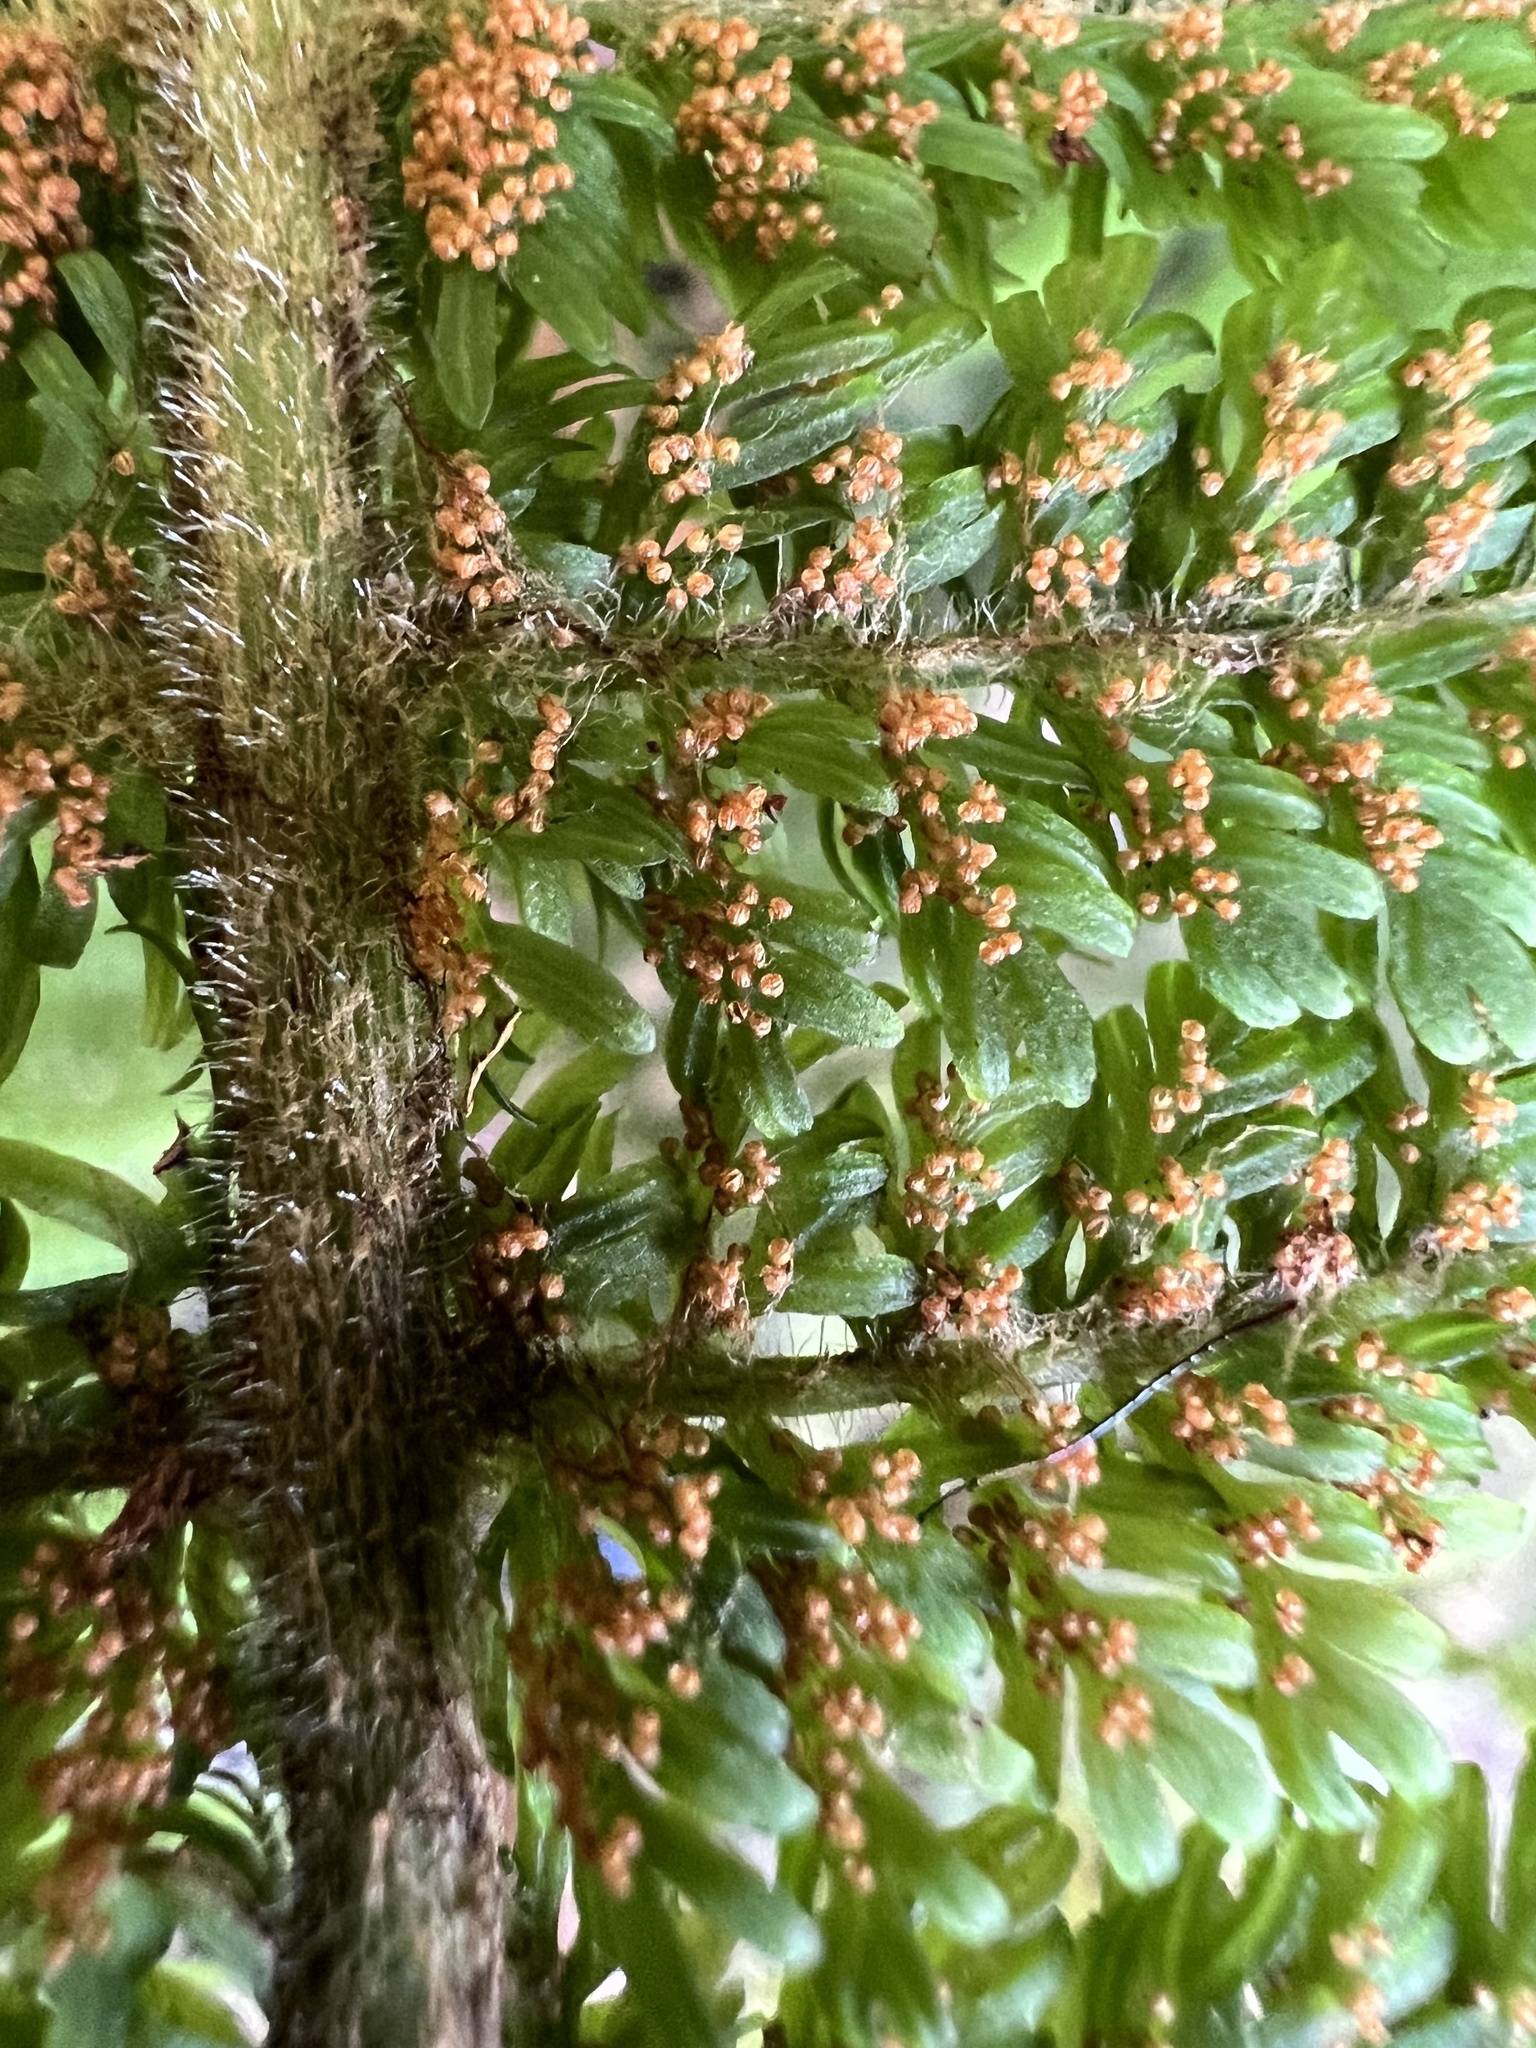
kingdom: Plantae
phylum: Tracheophyta
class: Polypodiopsida
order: Osmundales
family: Osmundaceae
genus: Leptopteris
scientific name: Leptopteris superba
